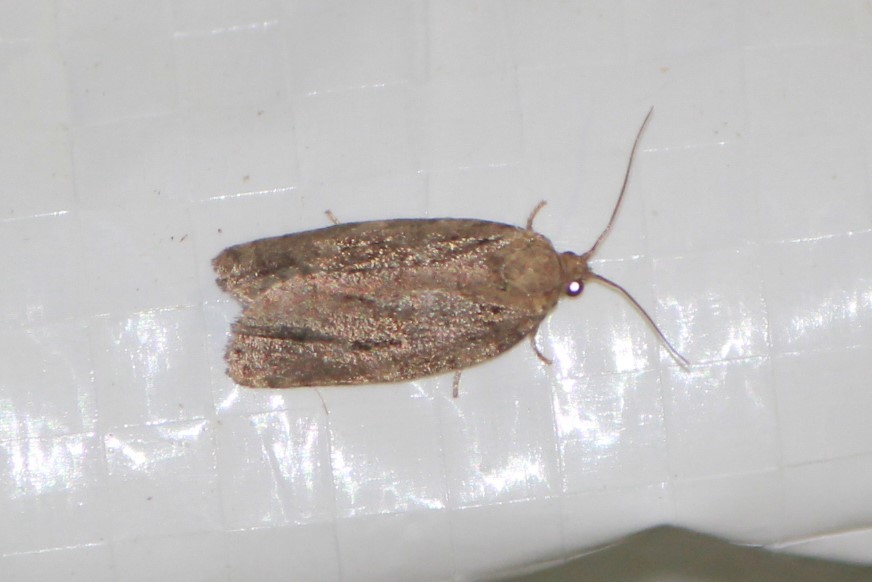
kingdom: Animalia
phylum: Arthropoda
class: Insecta
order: Lepidoptera
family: Tortricidae
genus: Choristoneura
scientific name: Choristoneura fumiferana
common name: Spruce budworm
